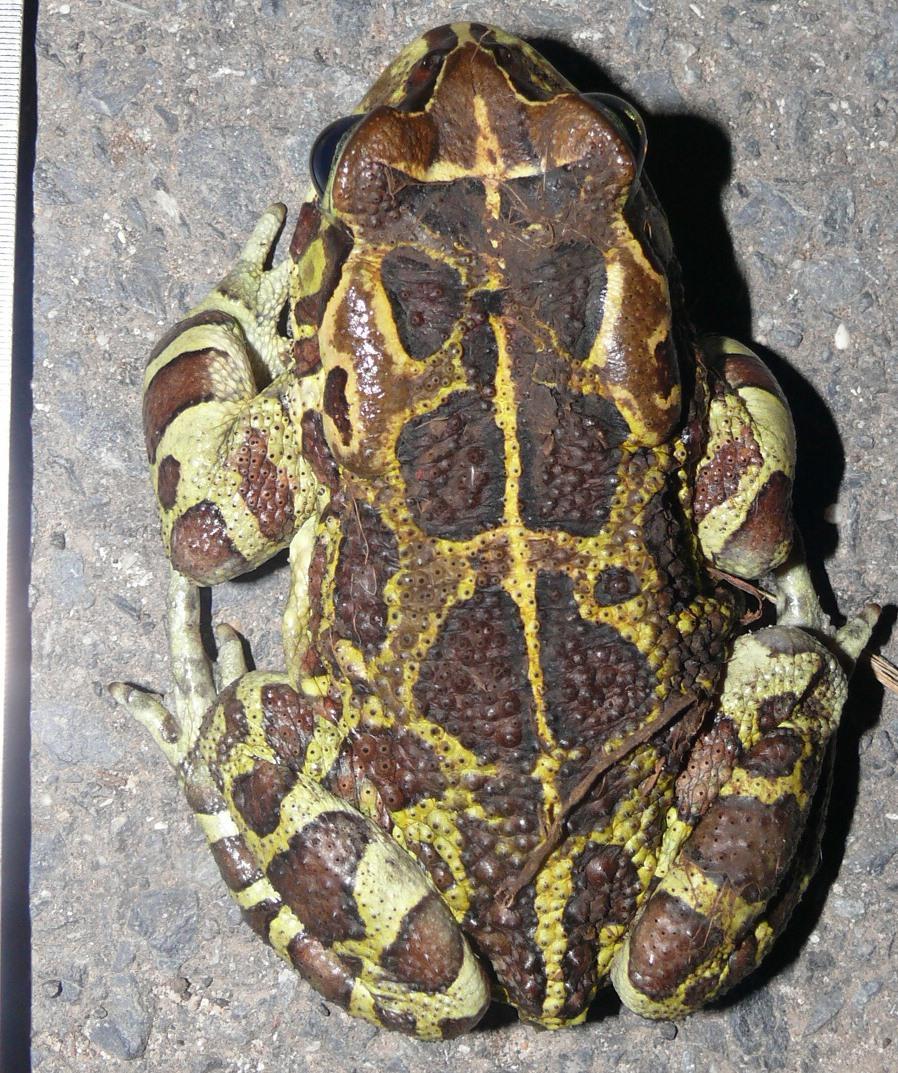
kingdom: Animalia
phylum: Chordata
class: Amphibia
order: Anura
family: Bufonidae
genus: Sclerophrys
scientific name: Sclerophrys pantherina
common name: Panther toad
